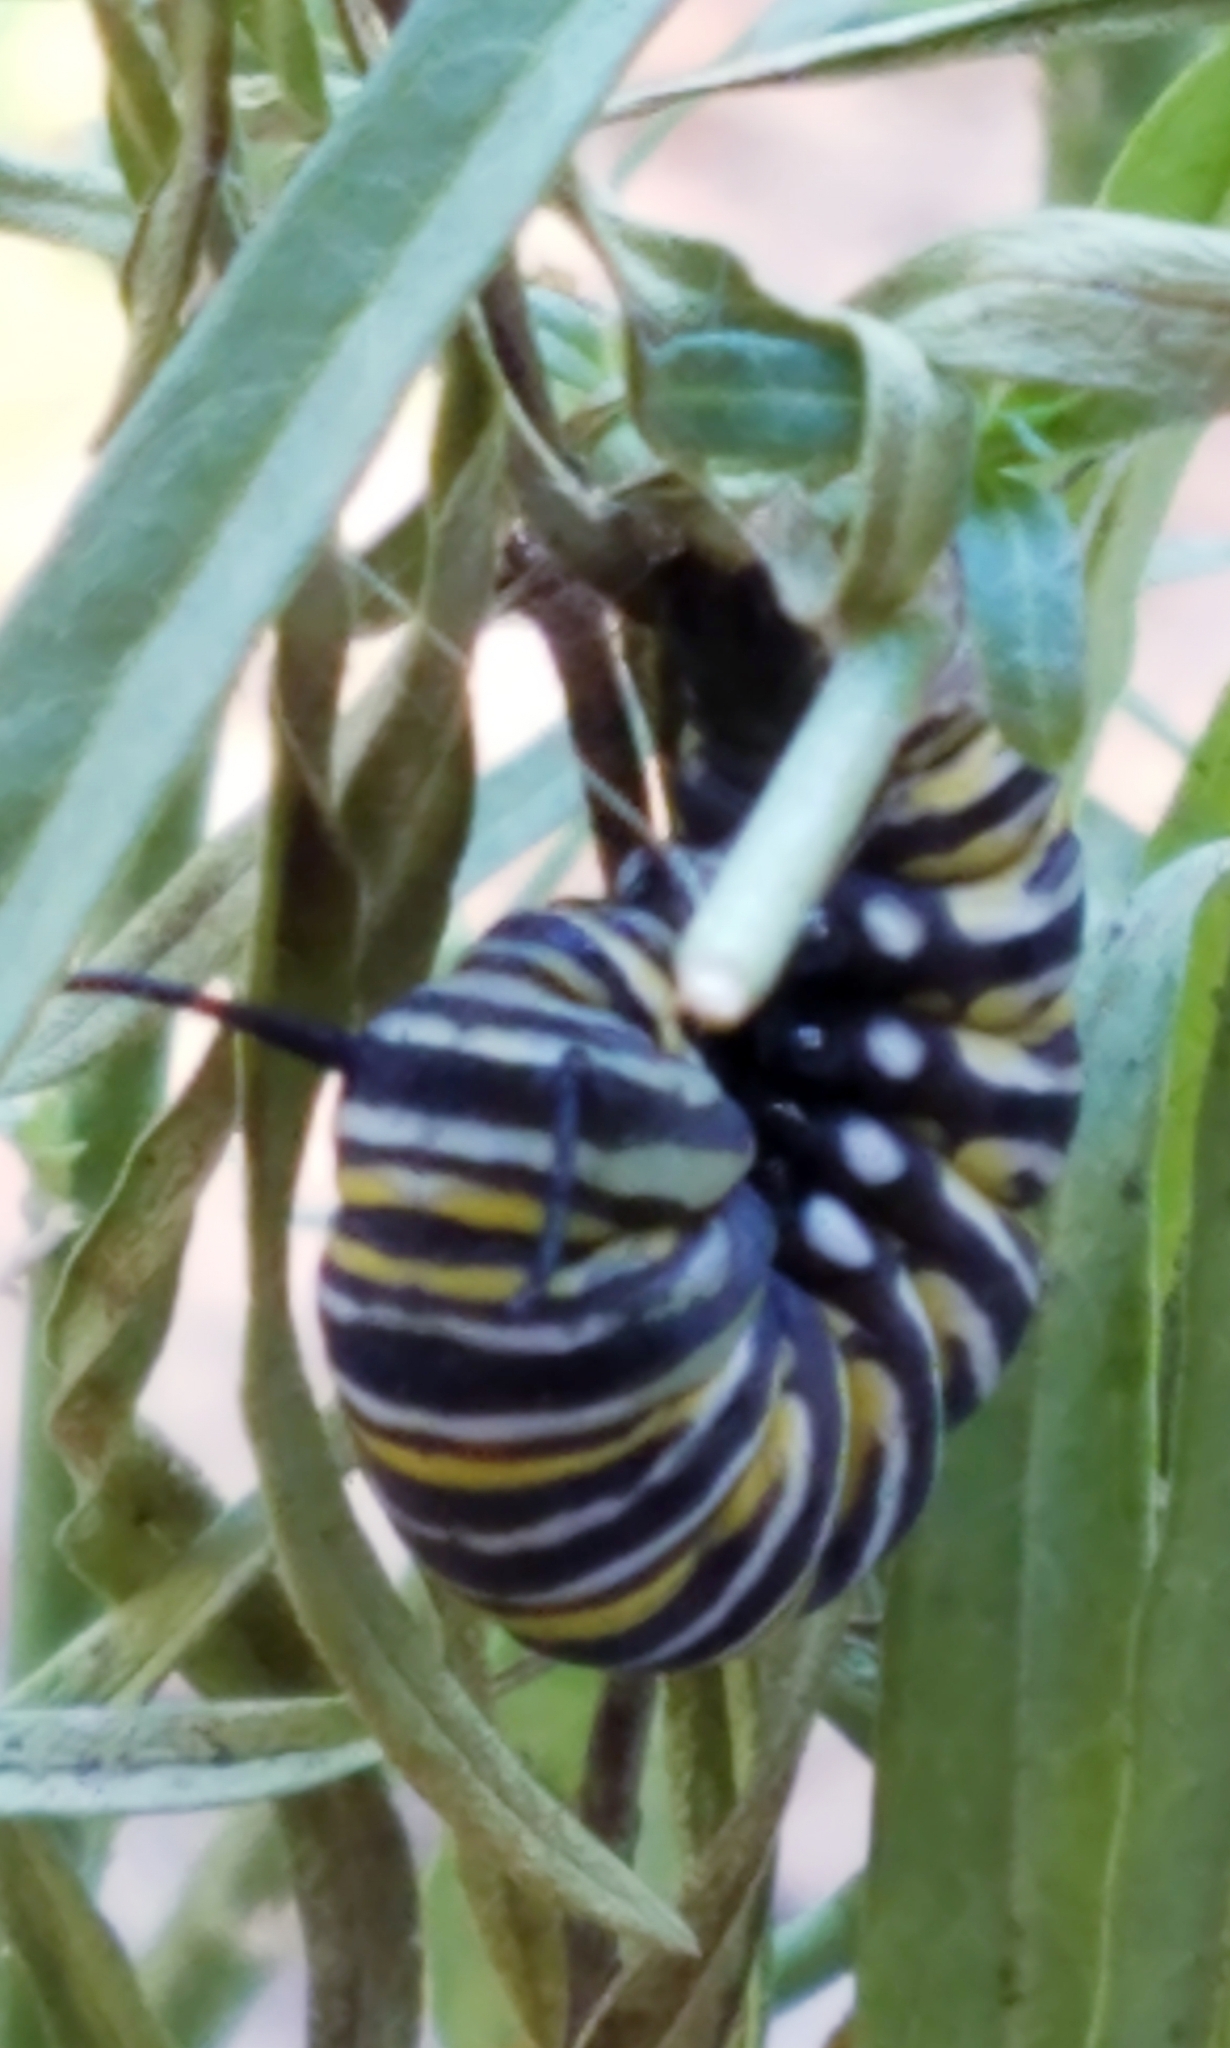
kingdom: Animalia
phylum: Arthropoda
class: Insecta
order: Lepidoptera
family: Nymphalidae
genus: Danaus
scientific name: Danaus plexippus
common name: Monarch
